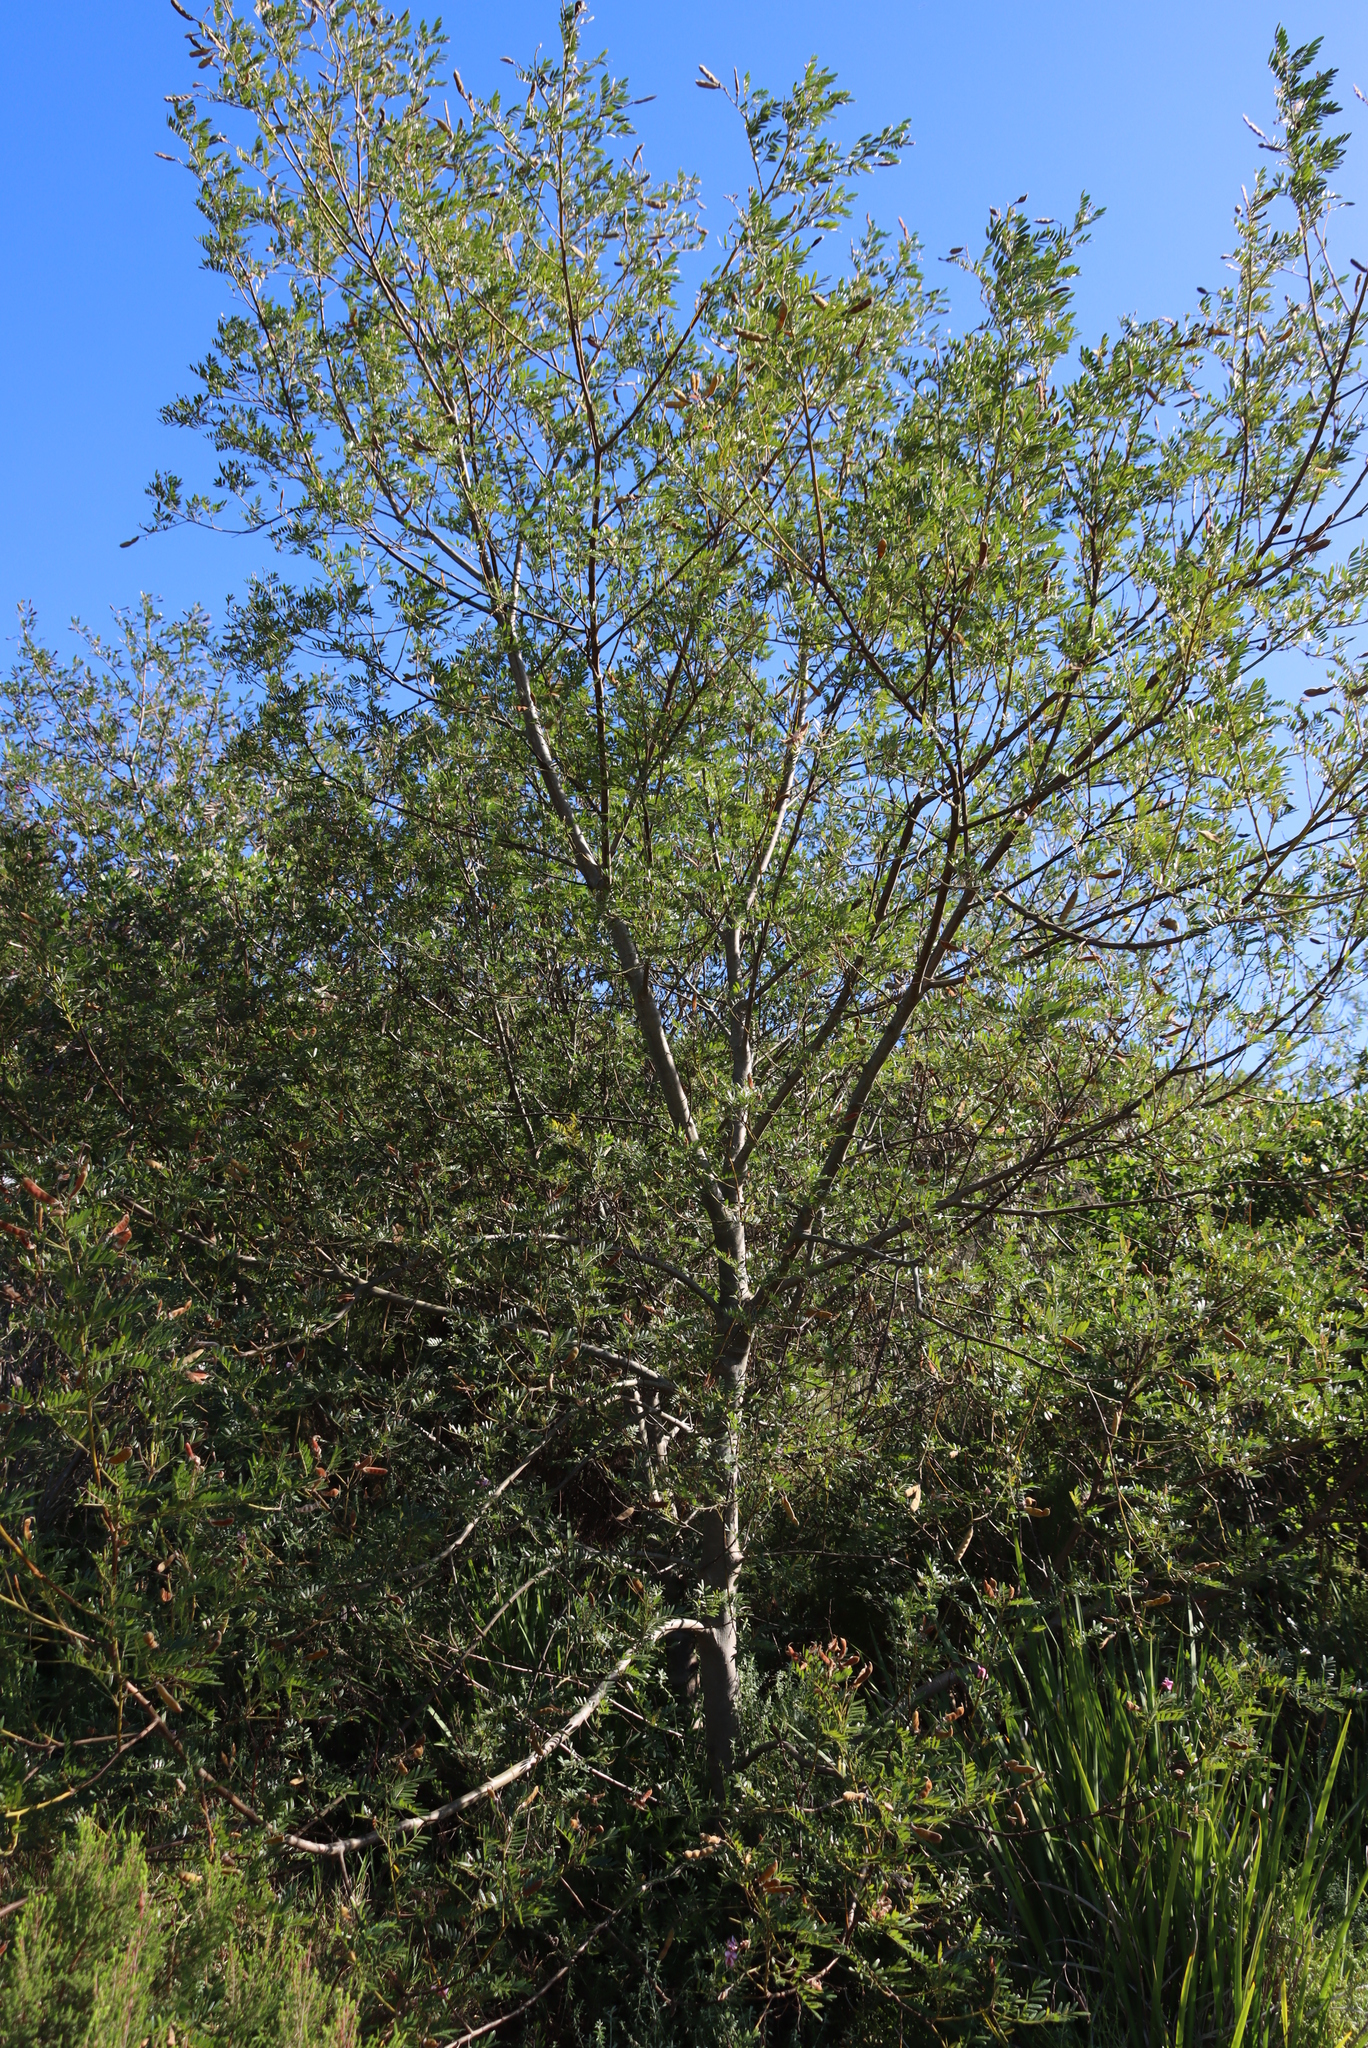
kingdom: Plantae
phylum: Tracheophyta
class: Magnoliopsida
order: Fabales
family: Fabaceae
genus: Virgilia
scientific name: Virgilia divaricata
